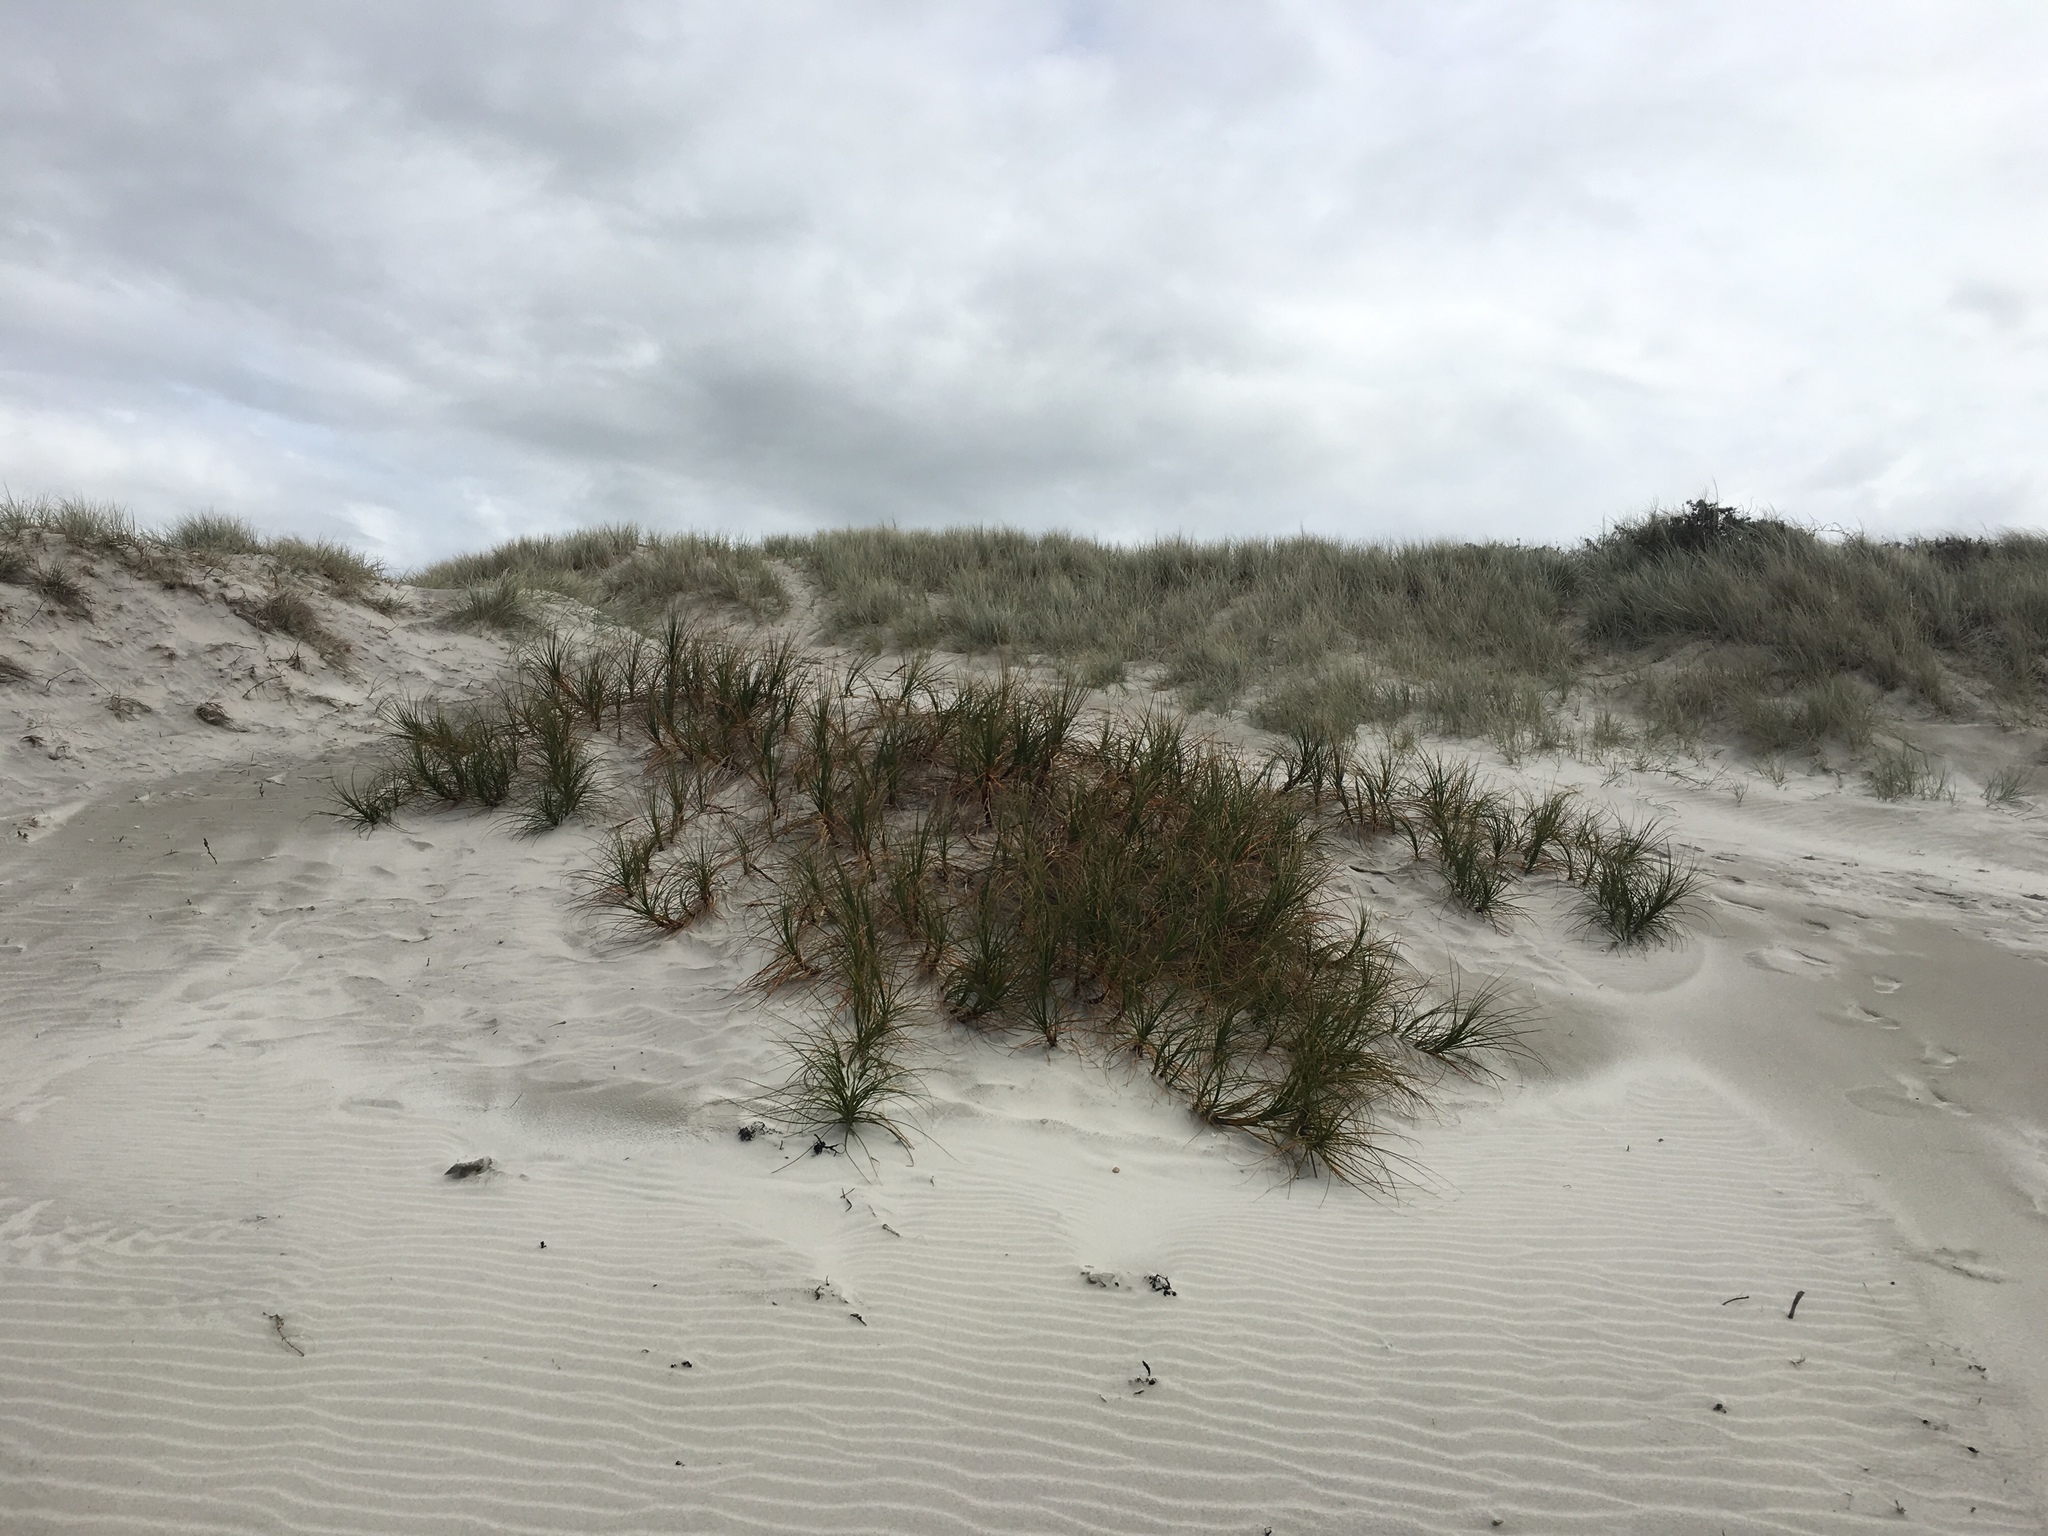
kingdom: Plantae
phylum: Tracheophyta
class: Liliopsida
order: Poales
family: Cyperaceae
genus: Ficinia
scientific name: Ficinia spiralis
